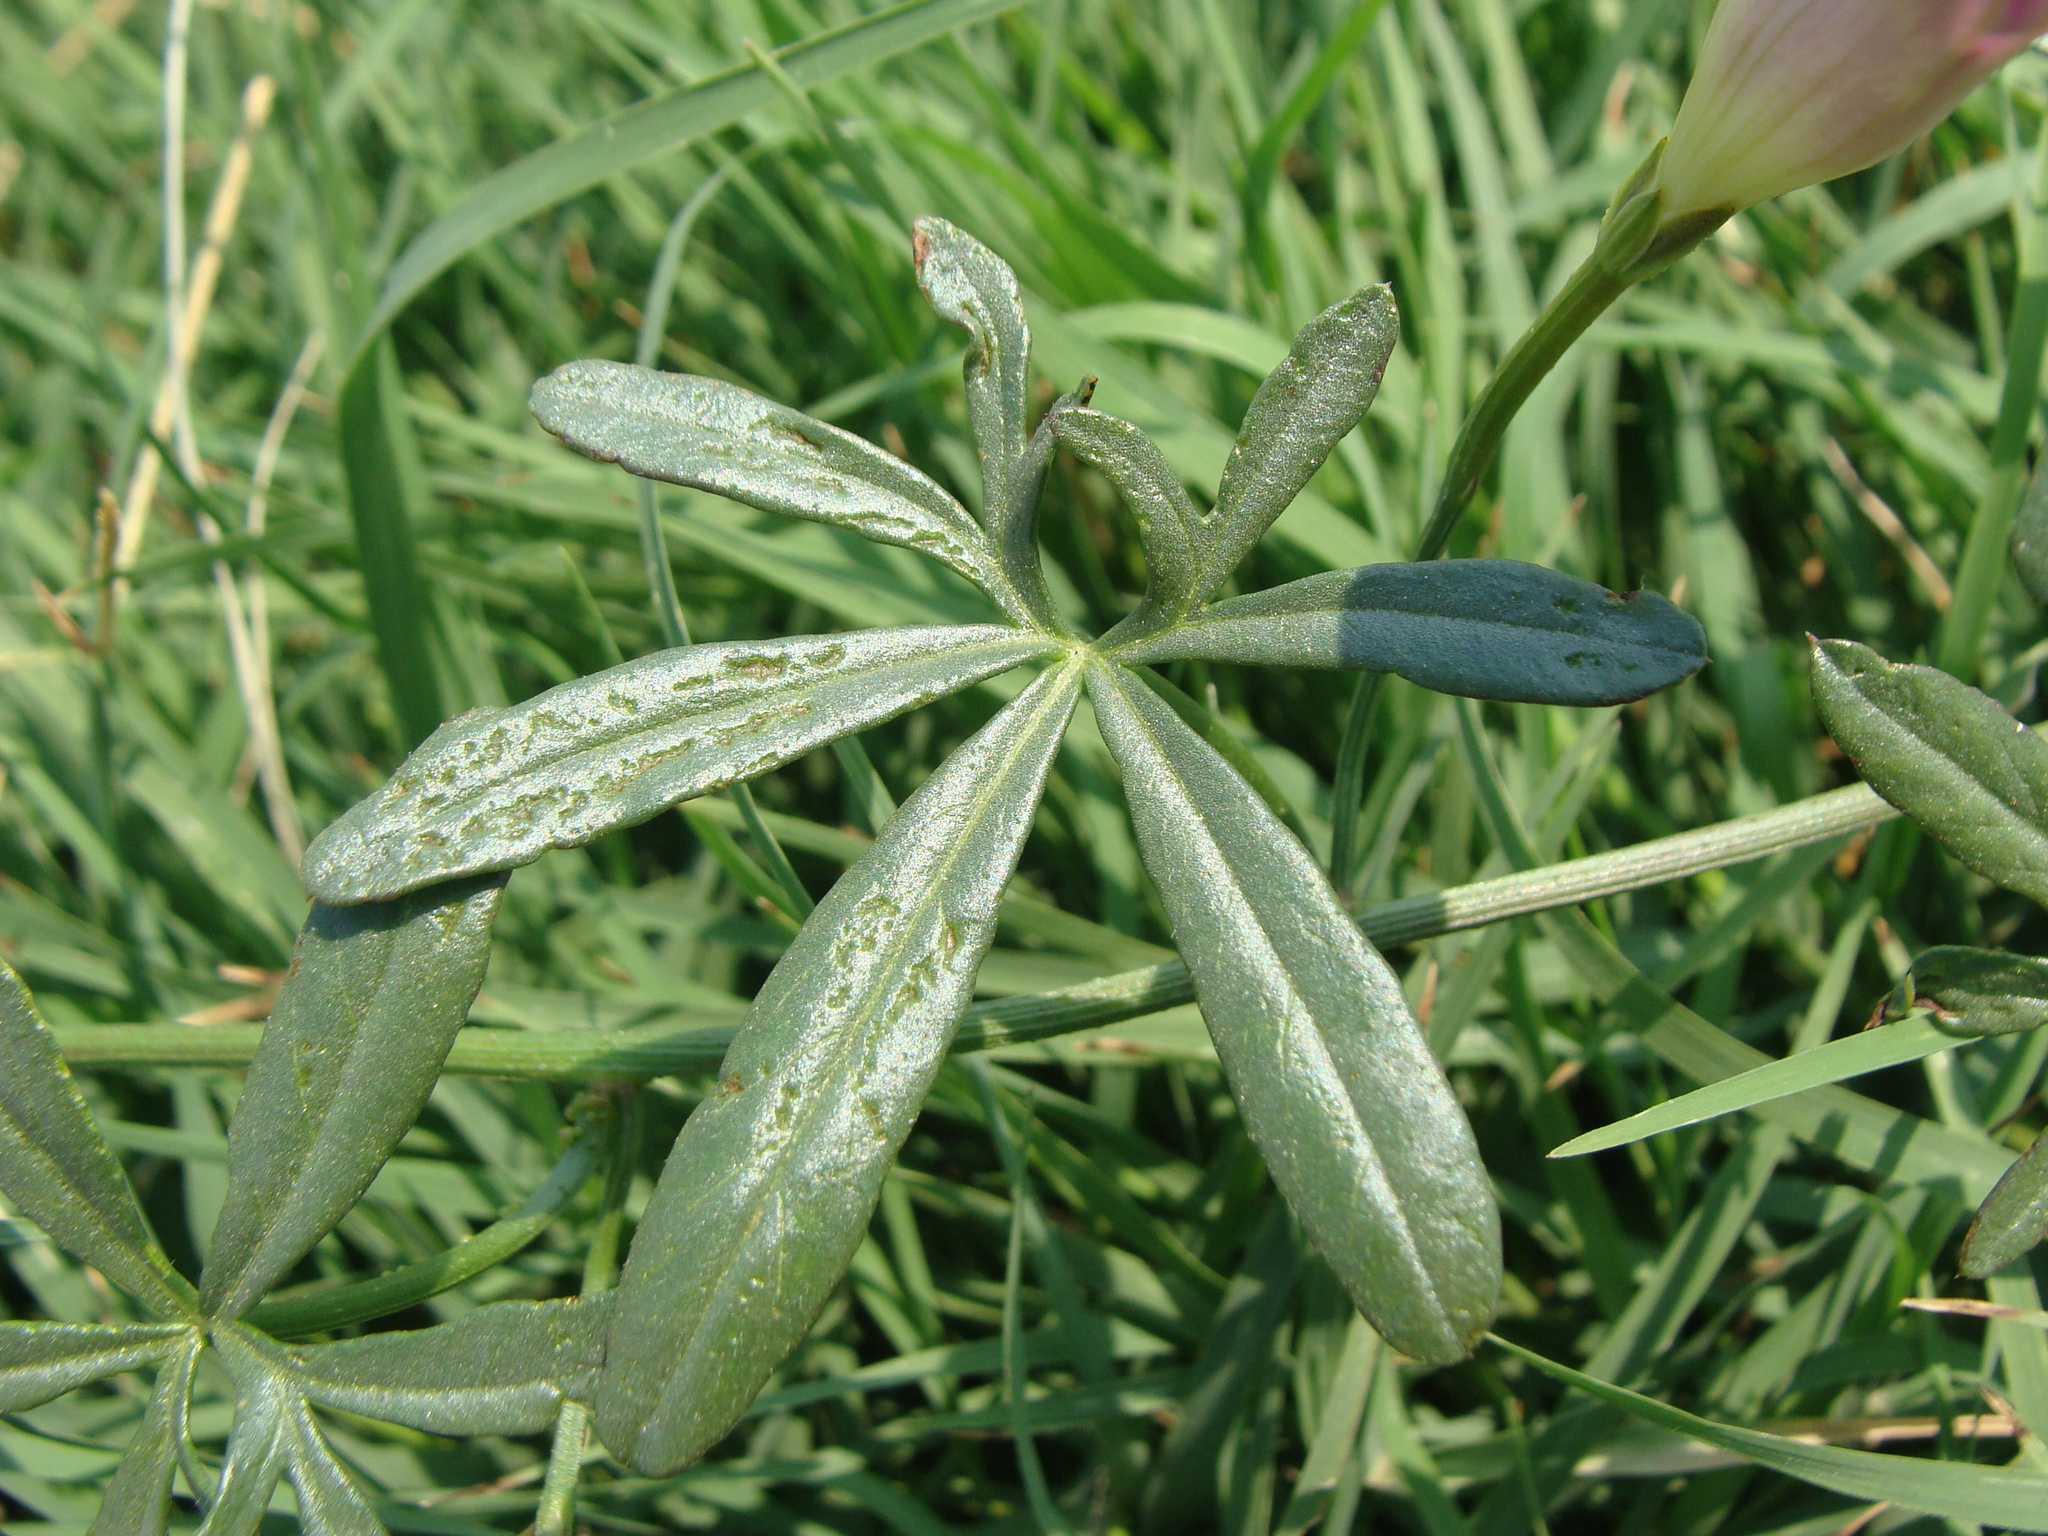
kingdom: Plantae
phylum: Tracheophyta
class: Magnoliopsida
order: Solanales
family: Convolvulaceae
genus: Ipomoea
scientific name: Ipomoea ternifolia
